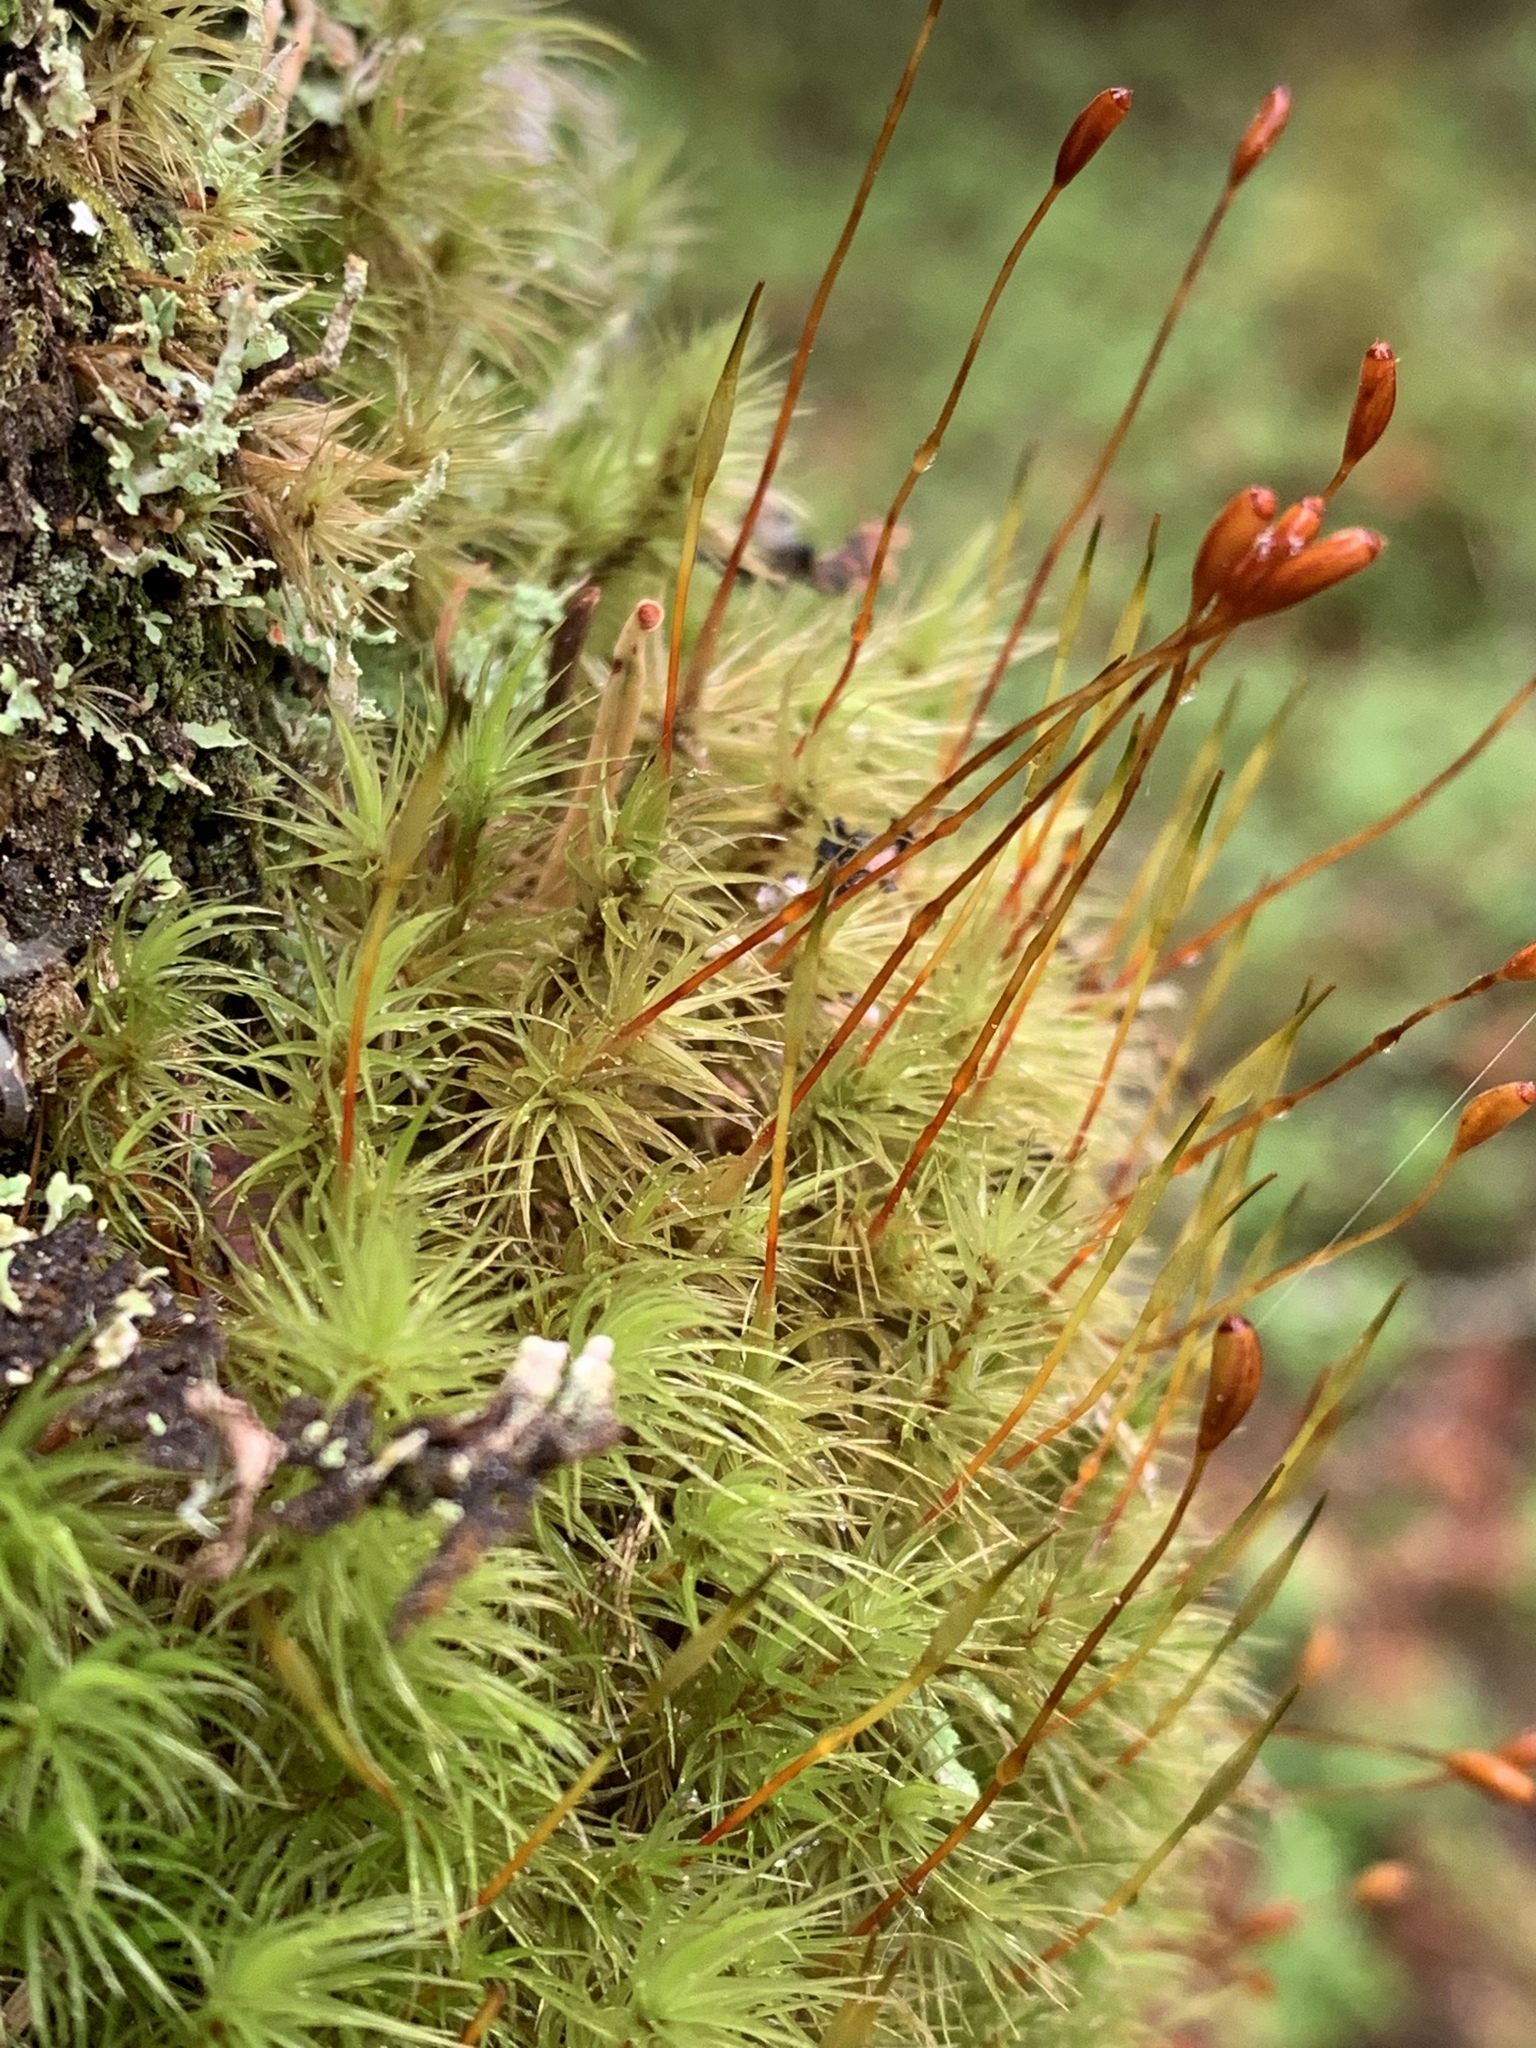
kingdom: Plantae
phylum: Bryophyta
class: Bryopsida
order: Dicranales
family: Dicranaceae
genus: Dicranum
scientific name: Dicranum scoparium
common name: Broom fork-moss
